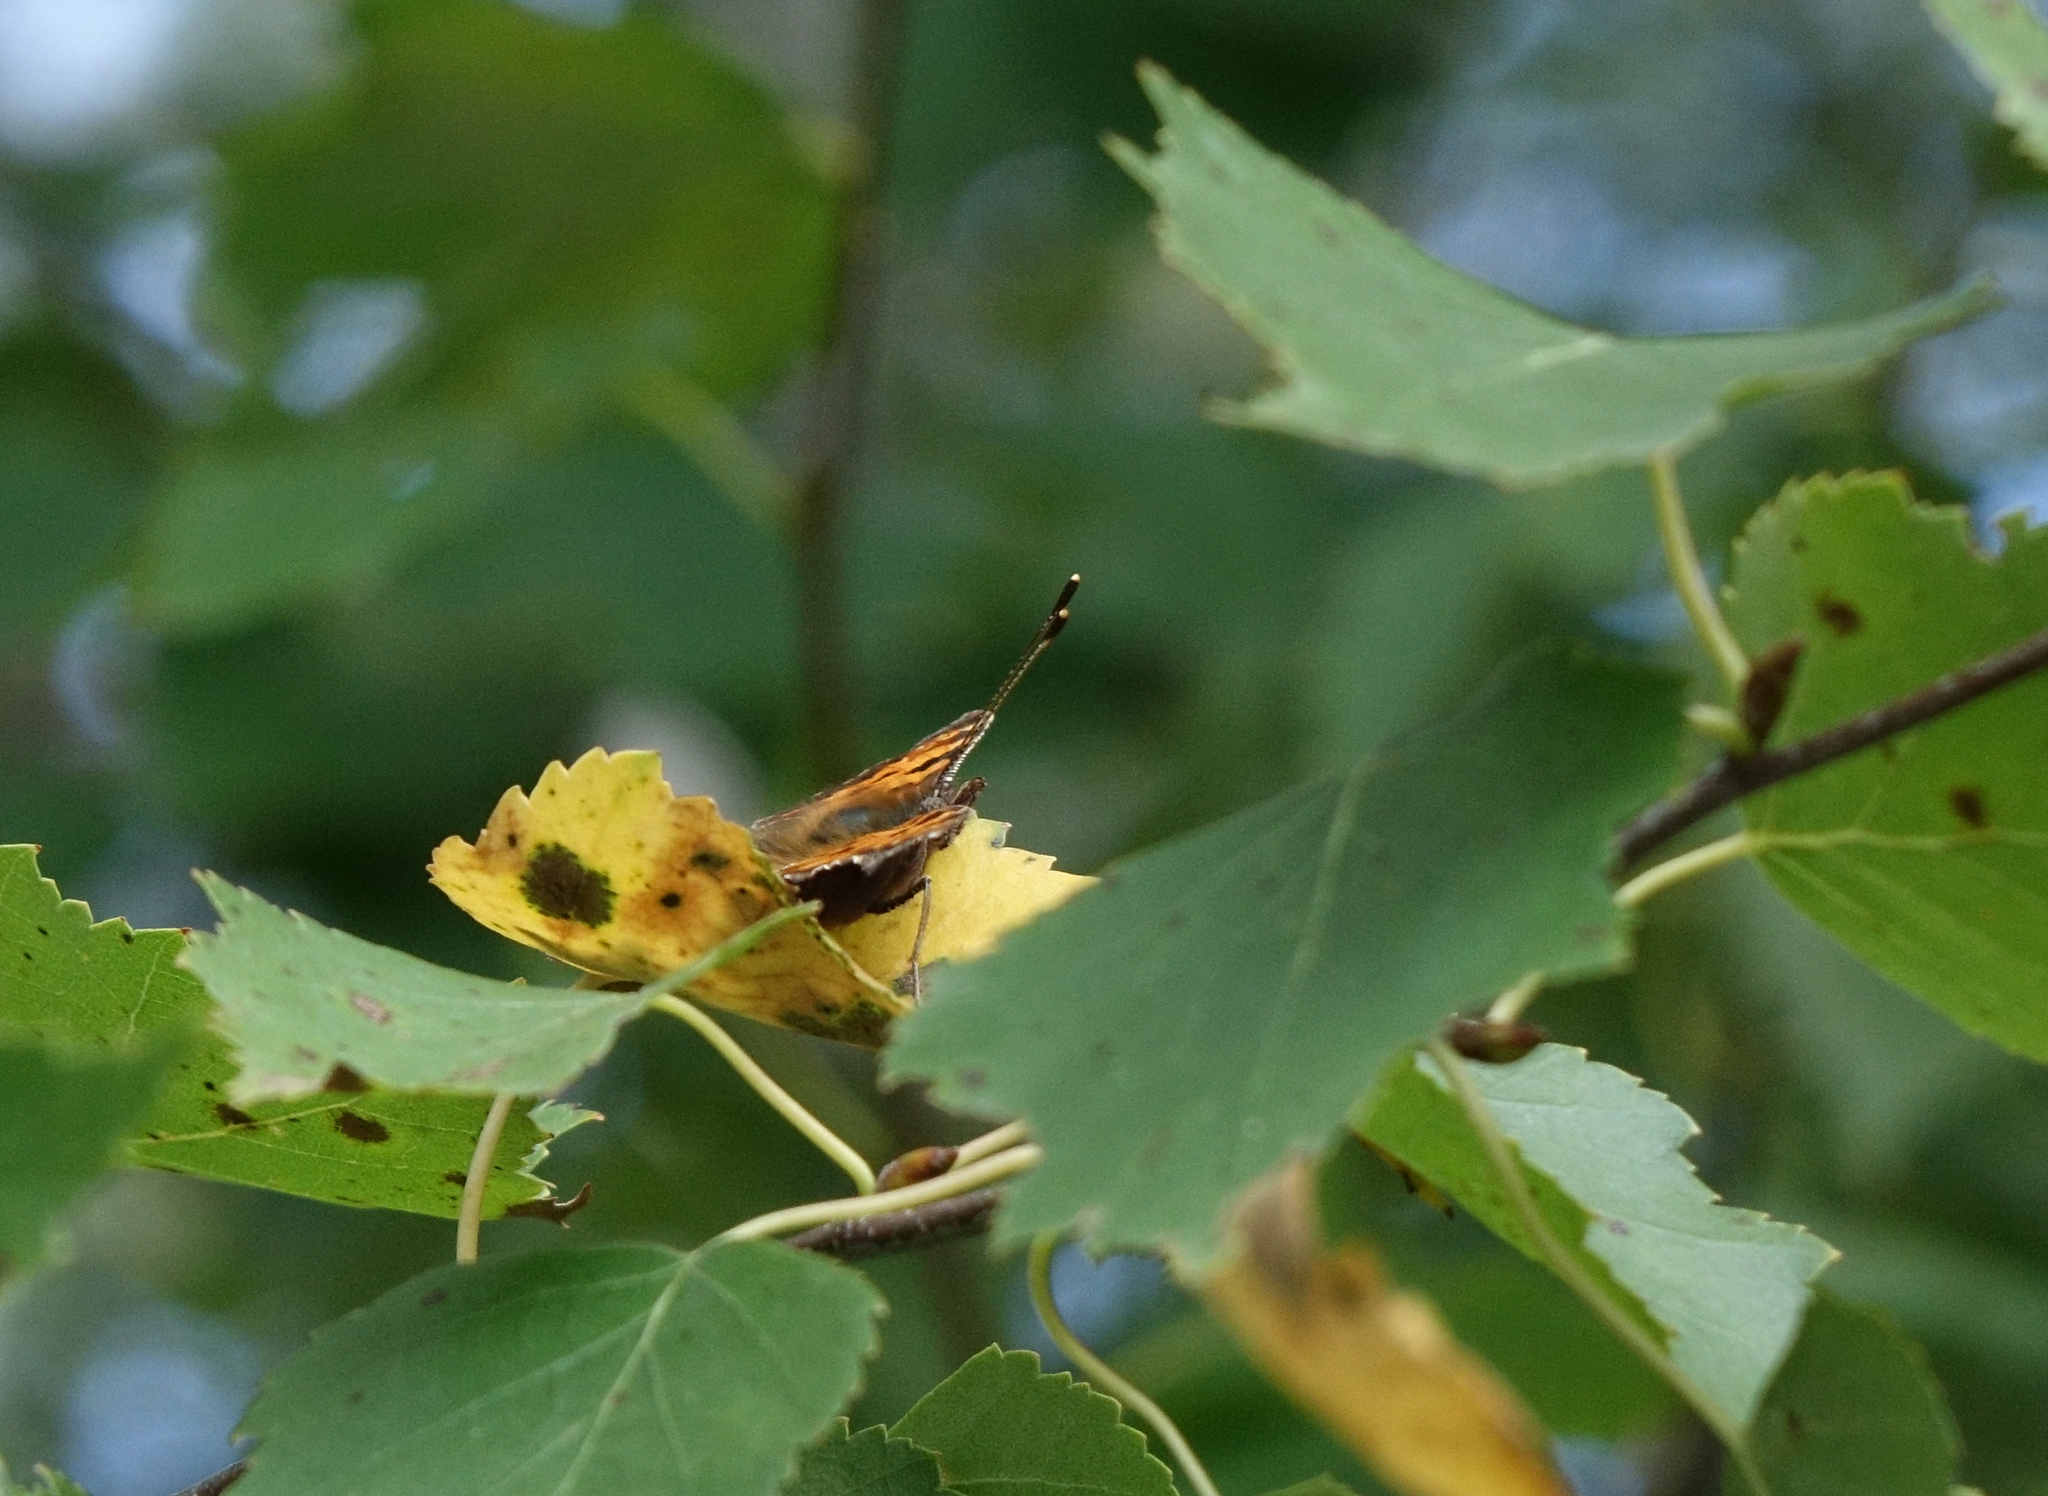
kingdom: Animalia
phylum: Arthropoda
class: Insecta
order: Lepidoptera
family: Nymphalidae
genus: Polygonia
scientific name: Polygonia c-album
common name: Comma
